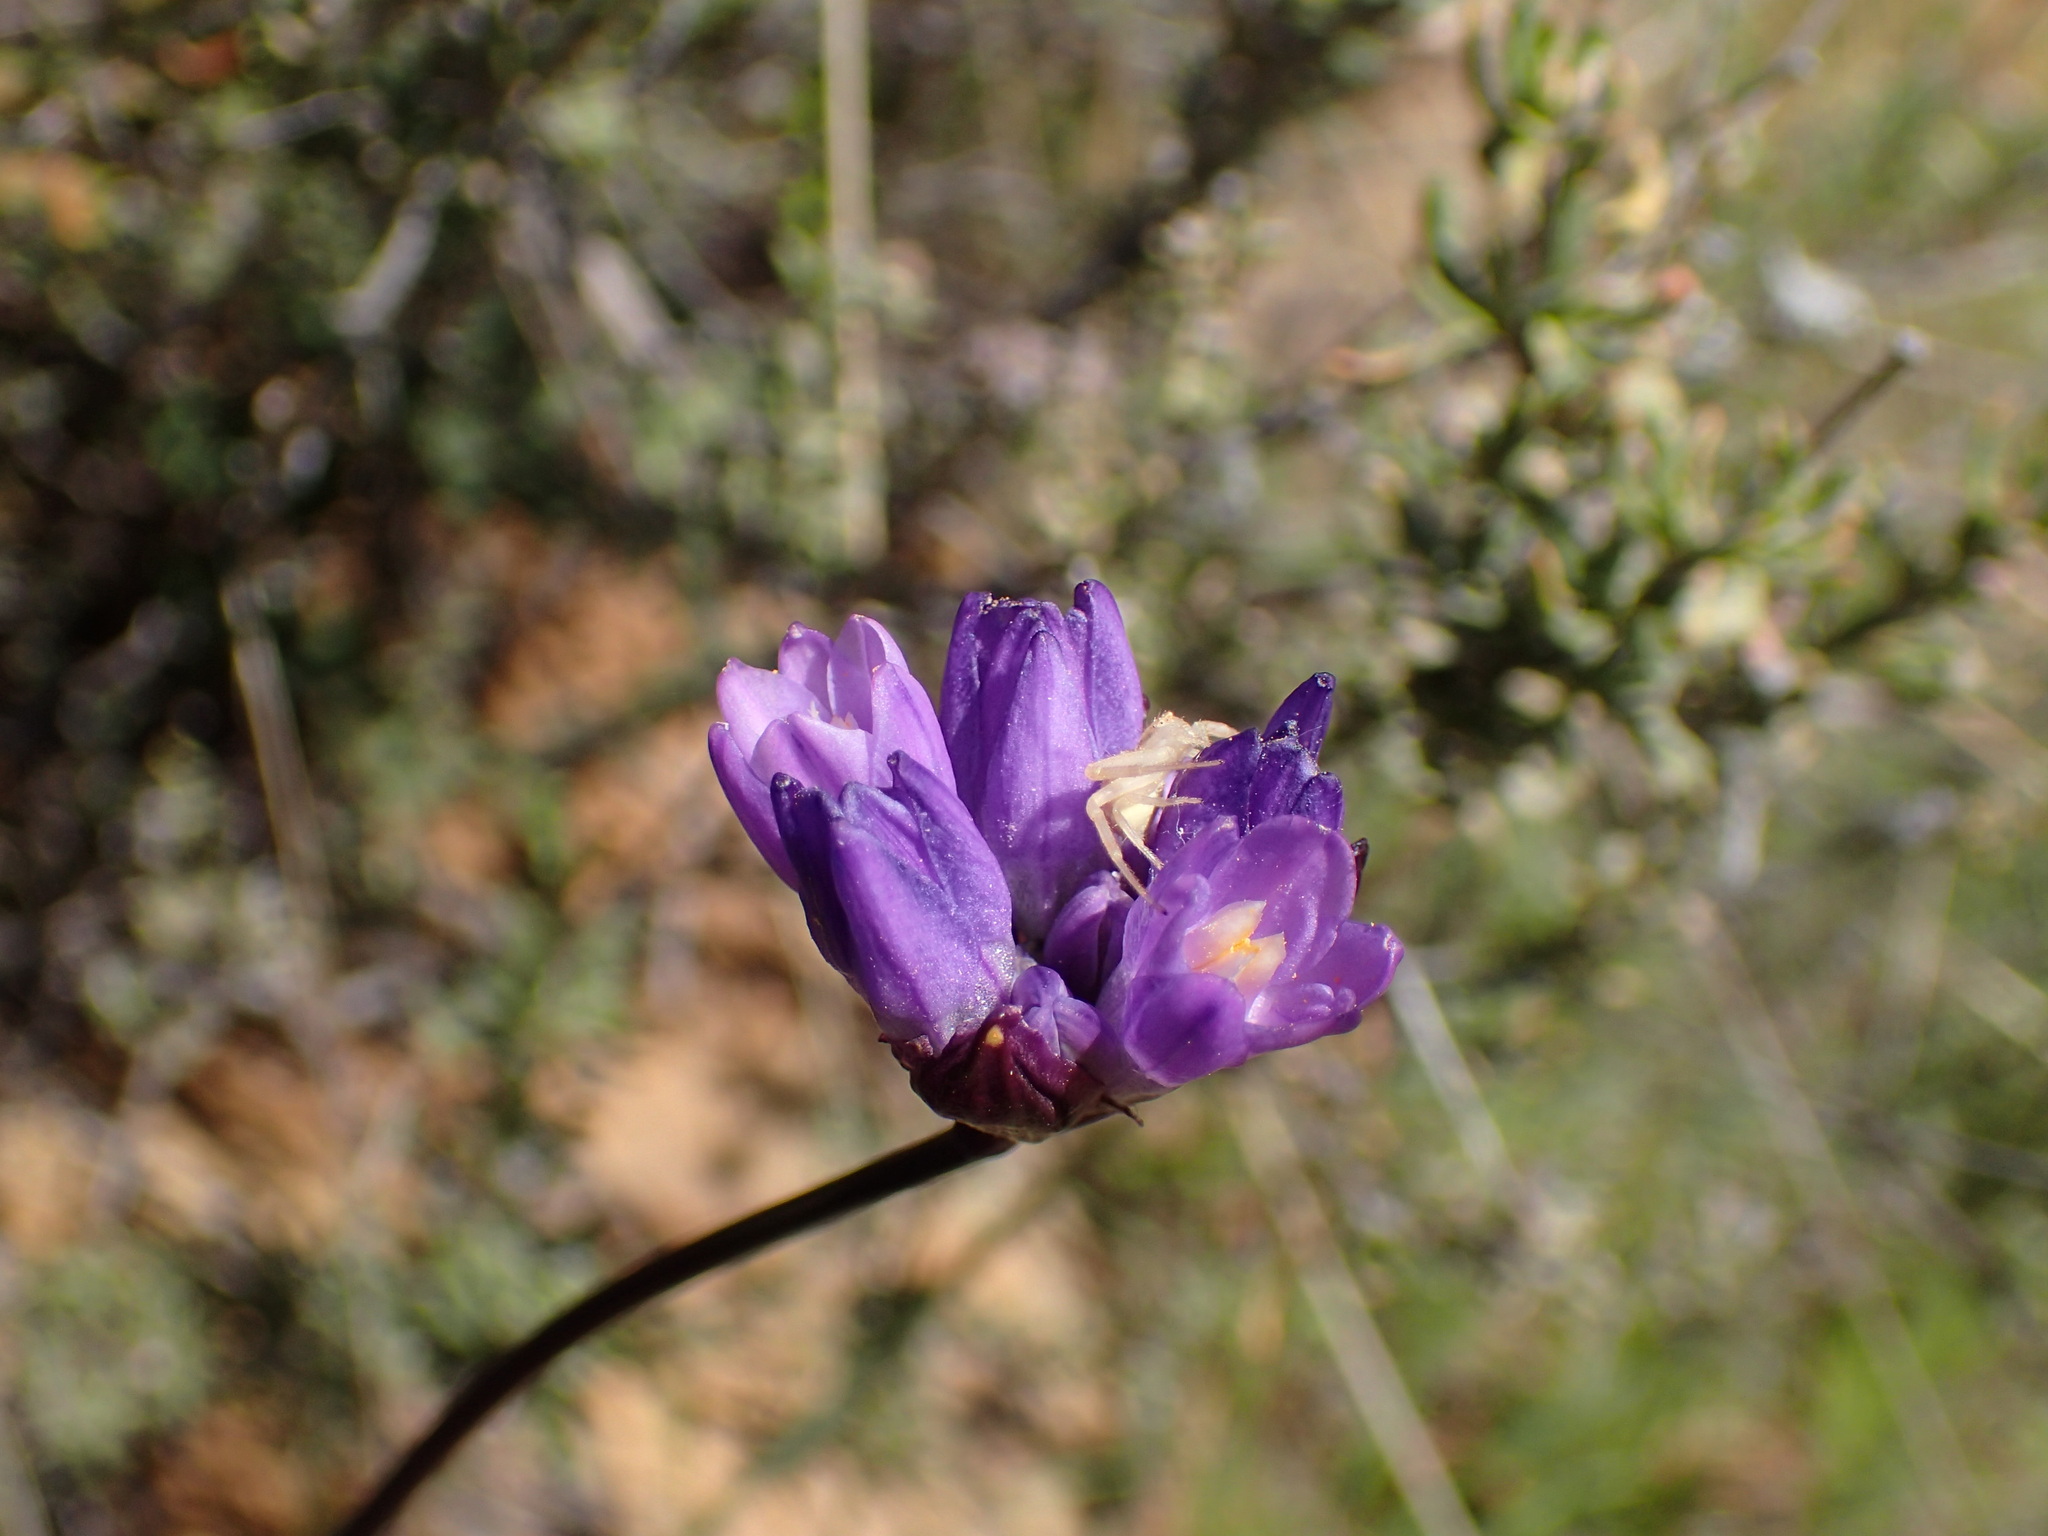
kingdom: Plantae
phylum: Tracheophyta
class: Liliopsida
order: Asparagales
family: Asparagaceae
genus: Dipterostemon
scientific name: Dipterostemon capitatus
